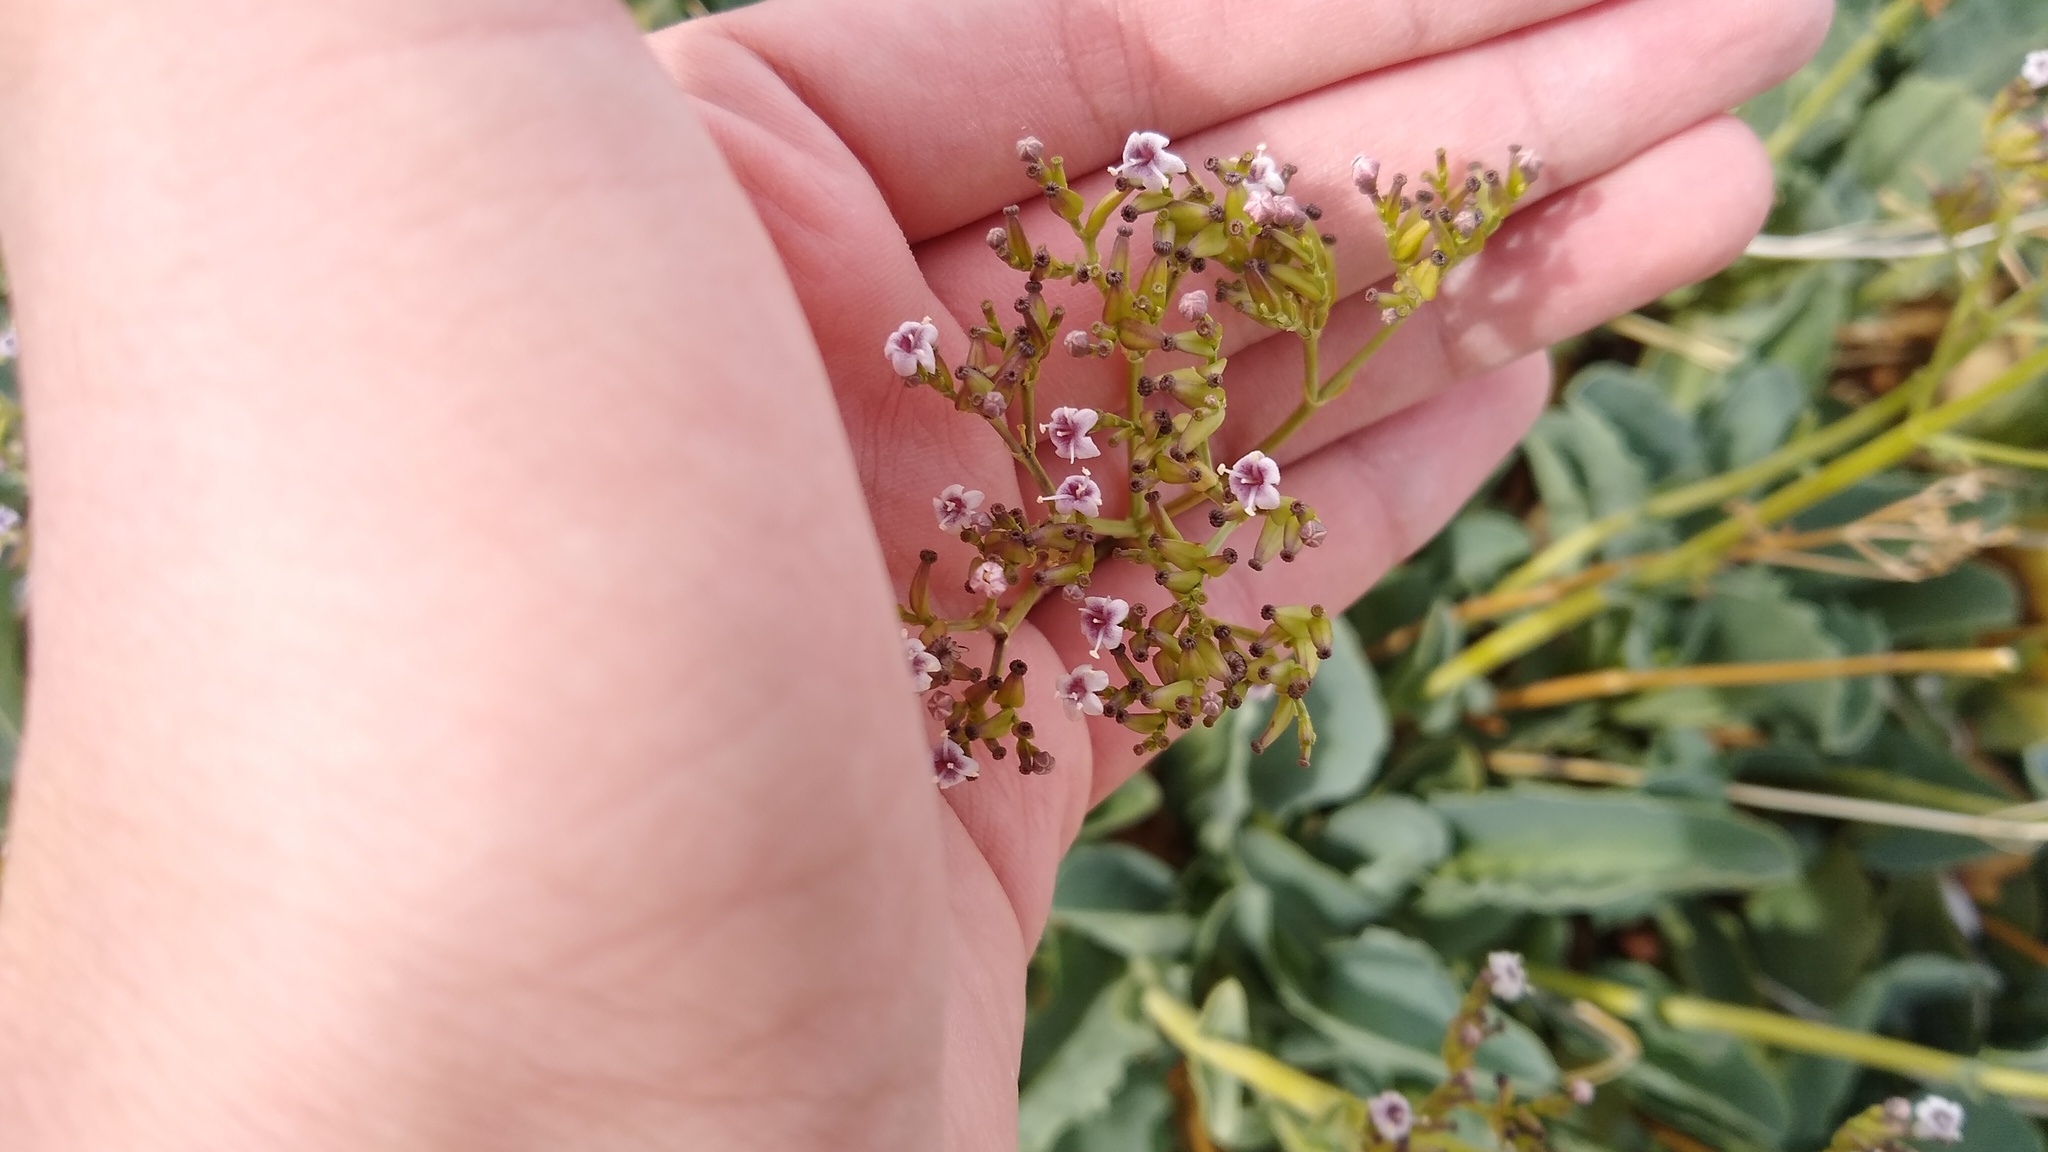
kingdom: Plantae
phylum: Tracheophyta
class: Magnoliopsida
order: Dipsacales
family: Caprifoliaceae
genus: Valeriana
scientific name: Valeriana carnosa
